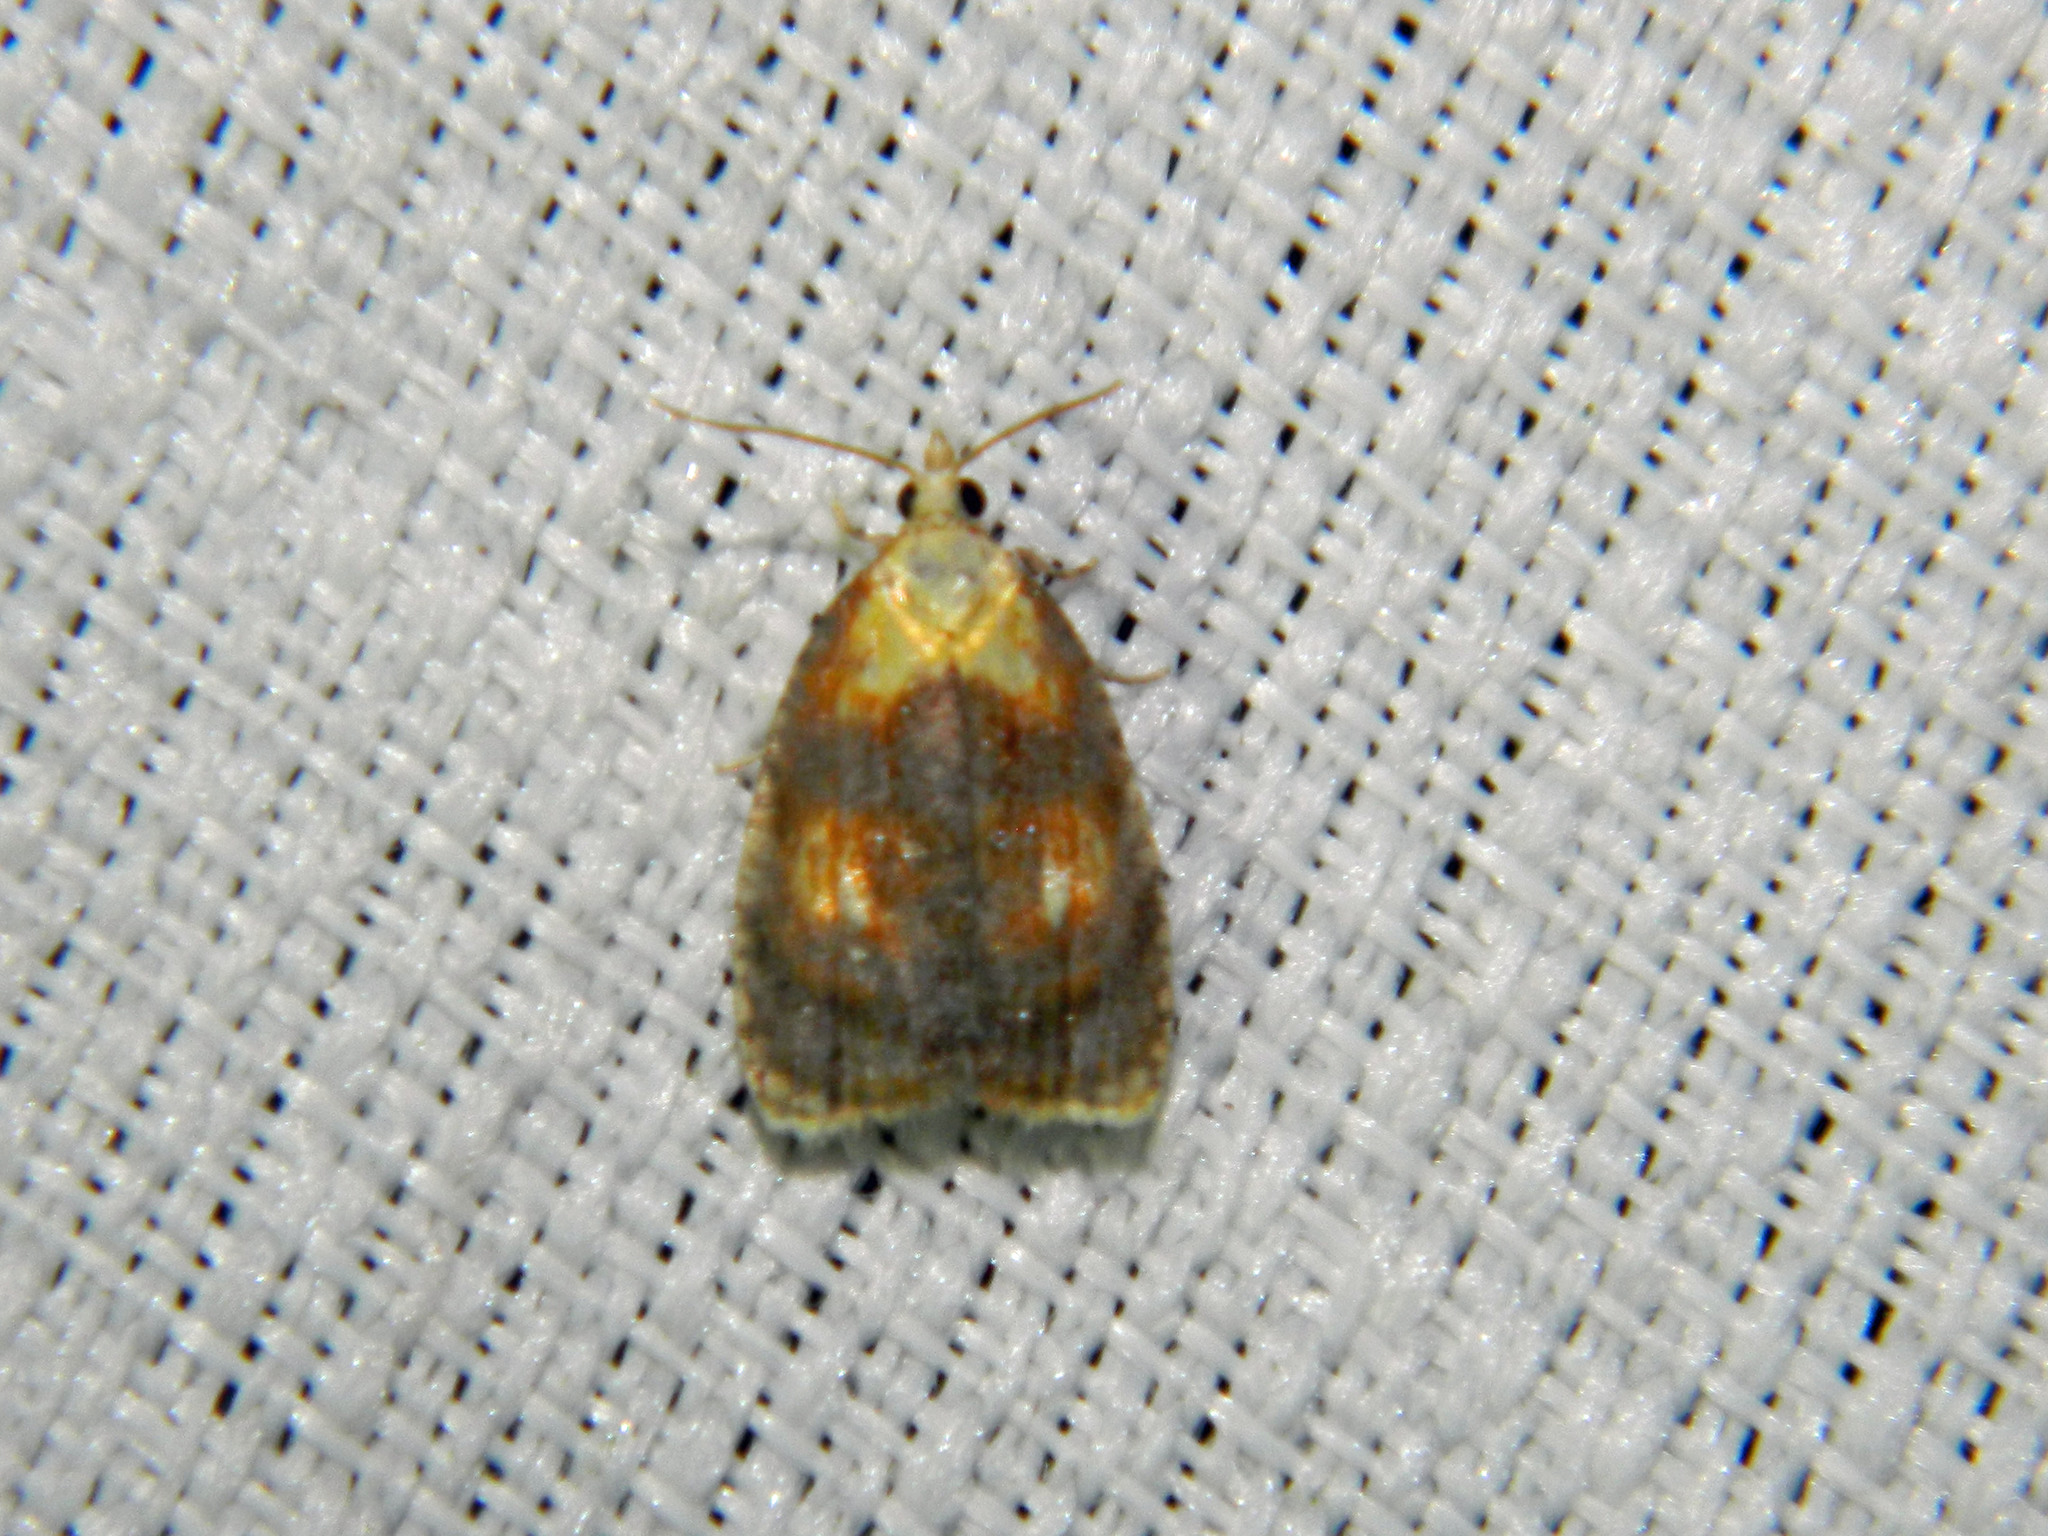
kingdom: Animalia
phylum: Arthropoda
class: Insecta
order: Lepidoptera
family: Tortricidae
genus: Acleris
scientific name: Acleris curvalana
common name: Blueberry leaftier moth
